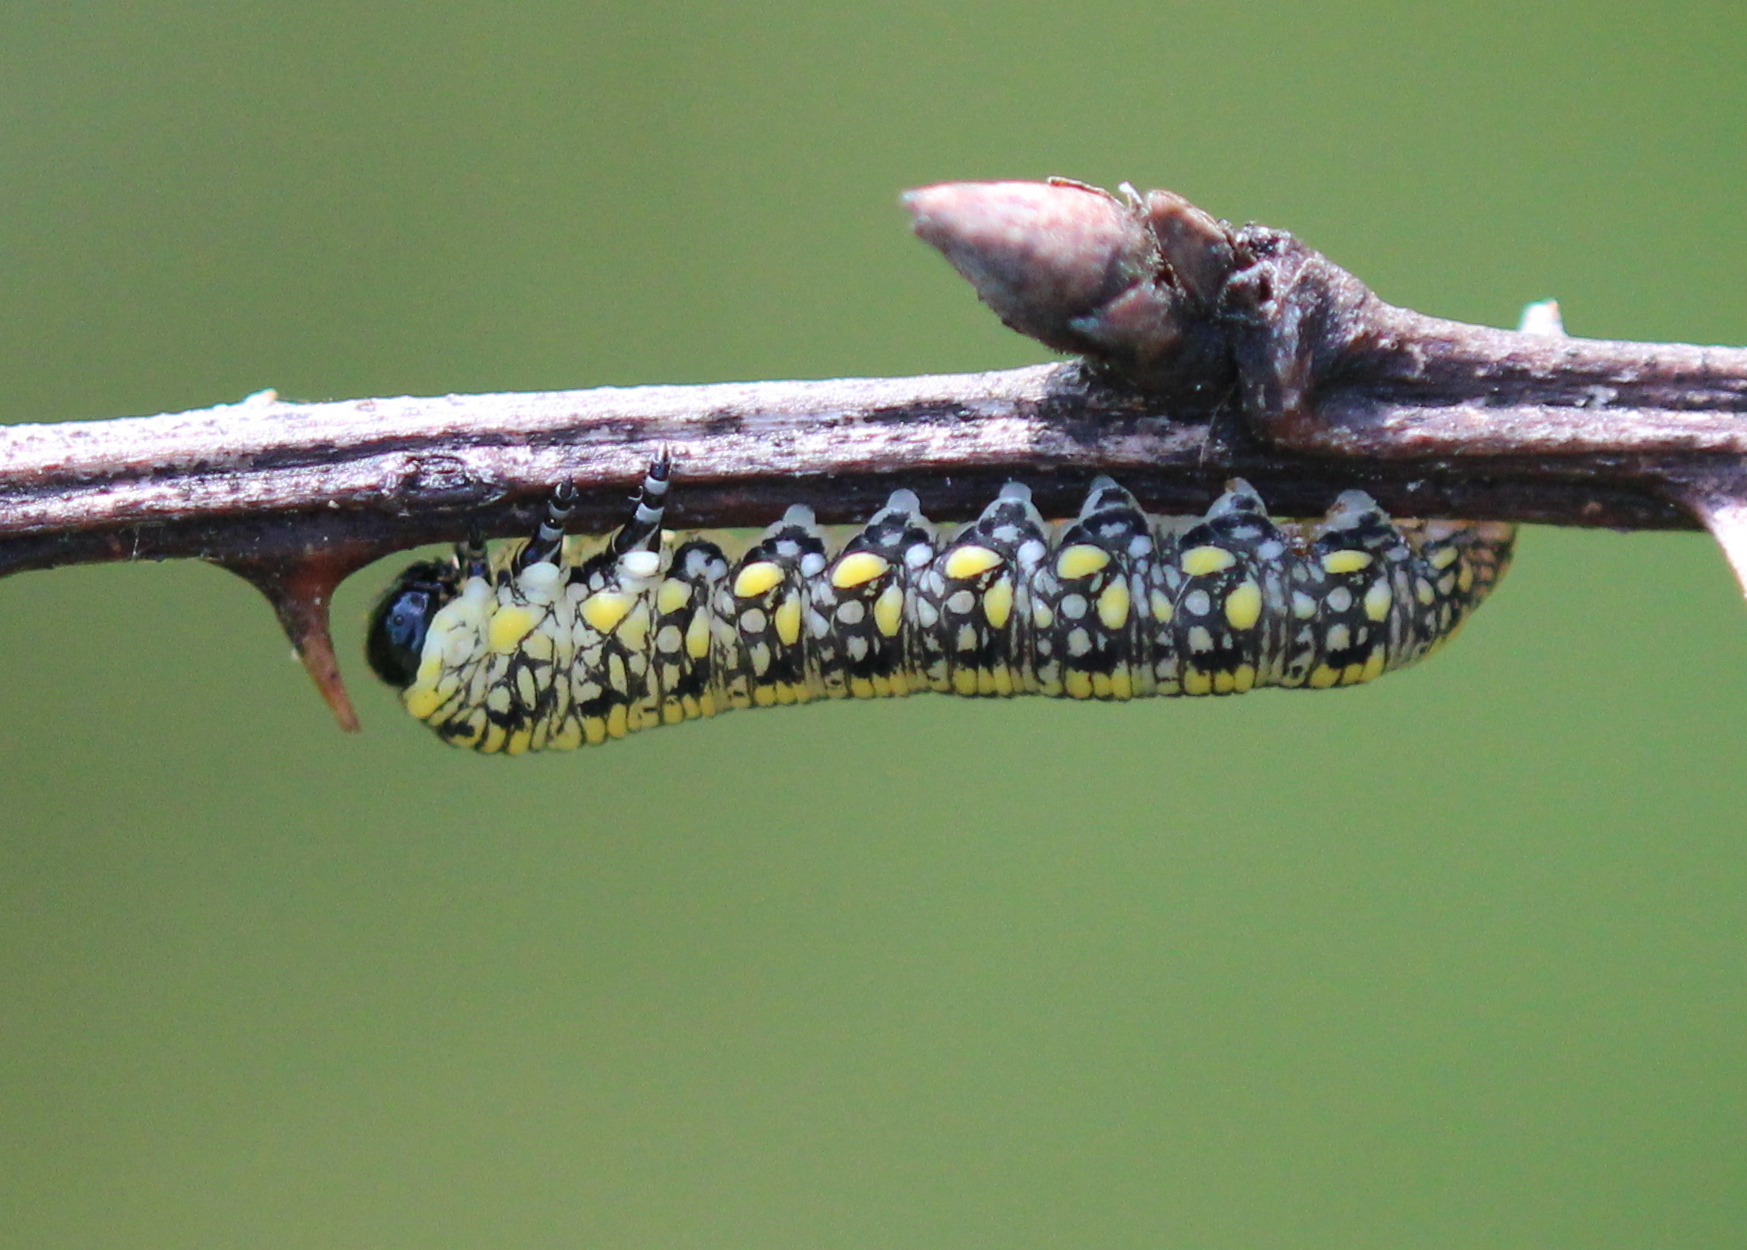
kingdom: Animalia
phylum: Arthropoda
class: Insecta
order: Hymenoptera
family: Diprionidae
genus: Diprion
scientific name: Diprion similis
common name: Pine sawfly
